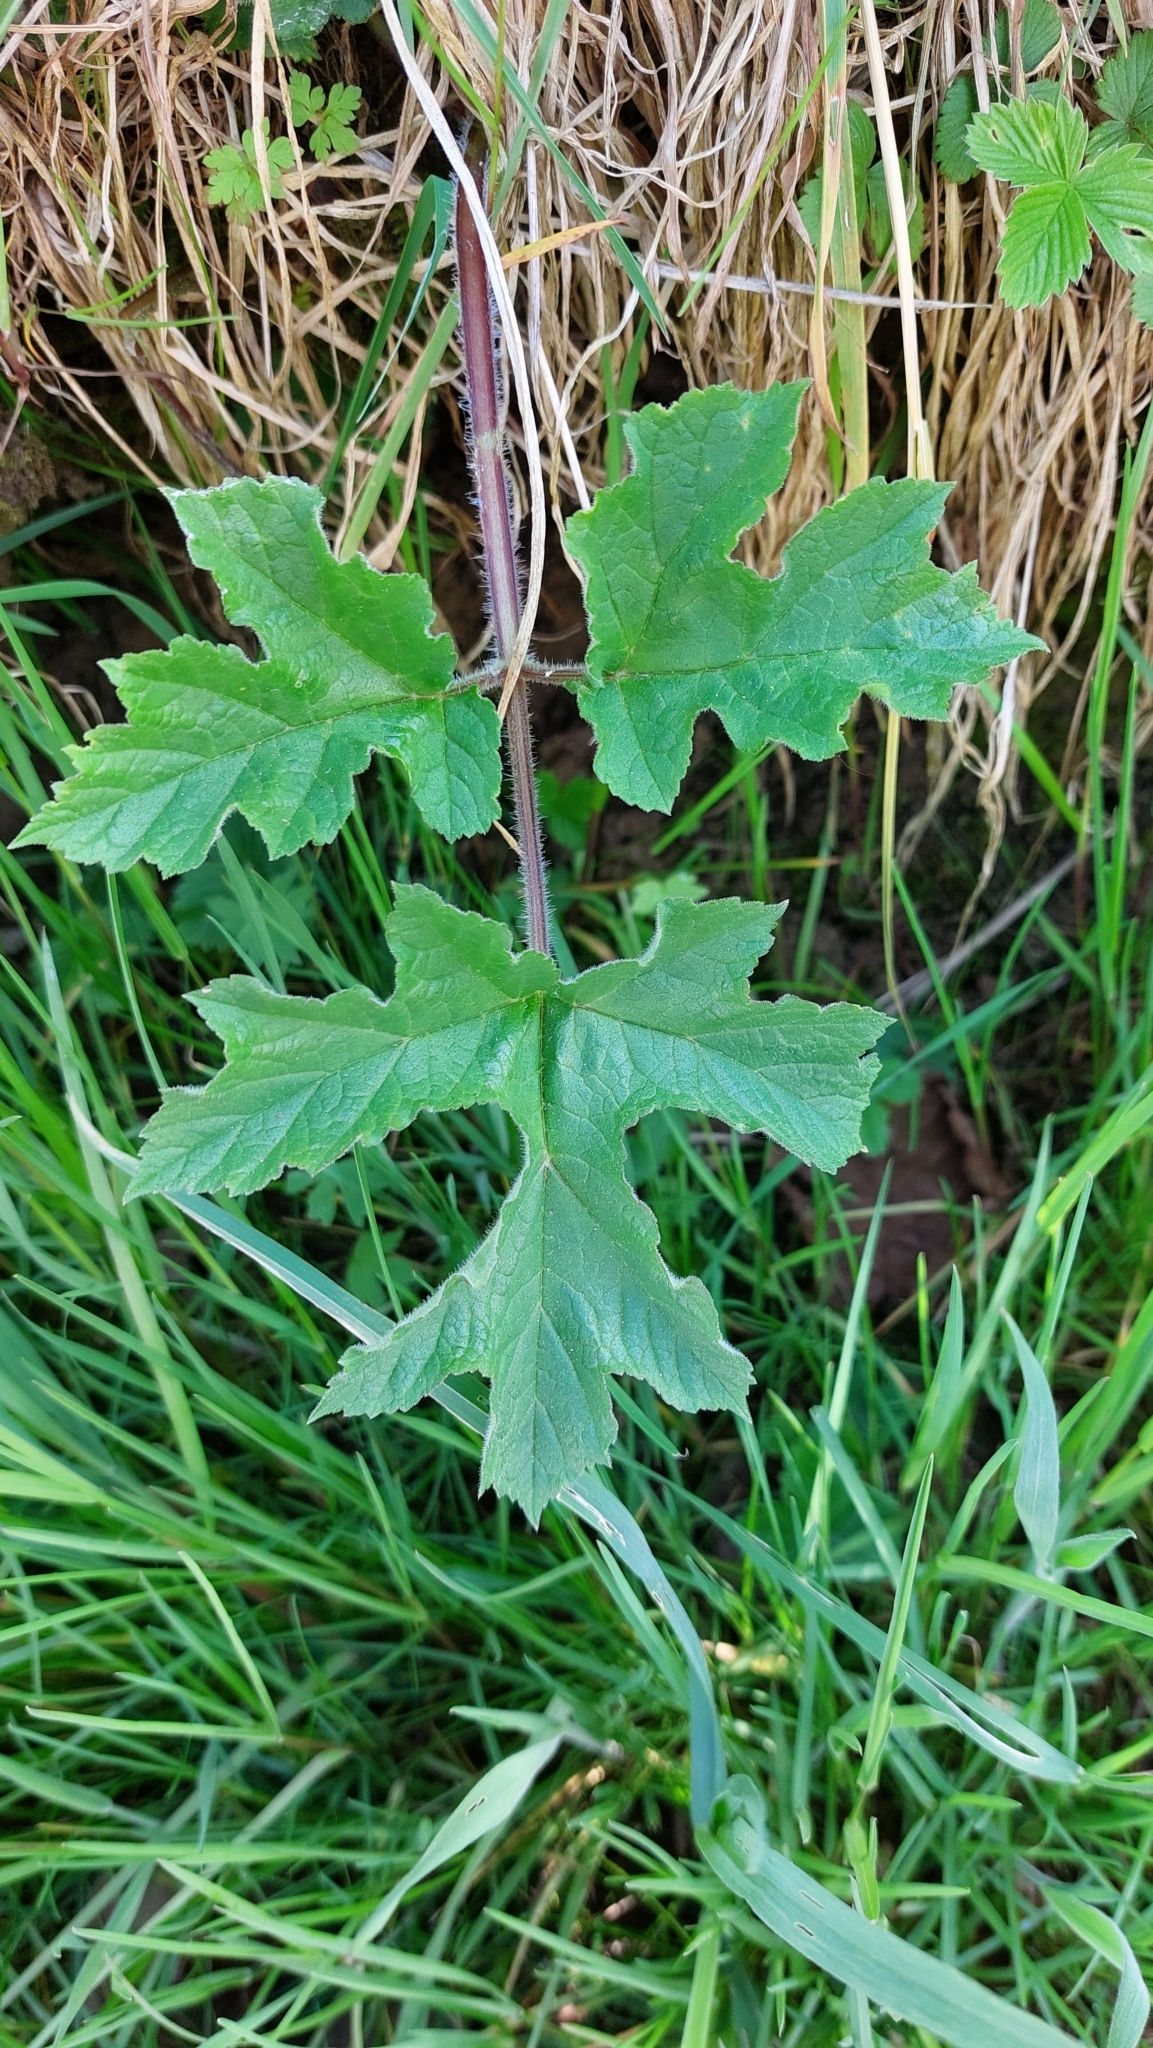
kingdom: Plantae
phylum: Tracheophyta
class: Magnoliopsida
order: Apiales
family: Apiaceae
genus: Heracleum
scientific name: Heracleum sphondylium
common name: Hogweed
